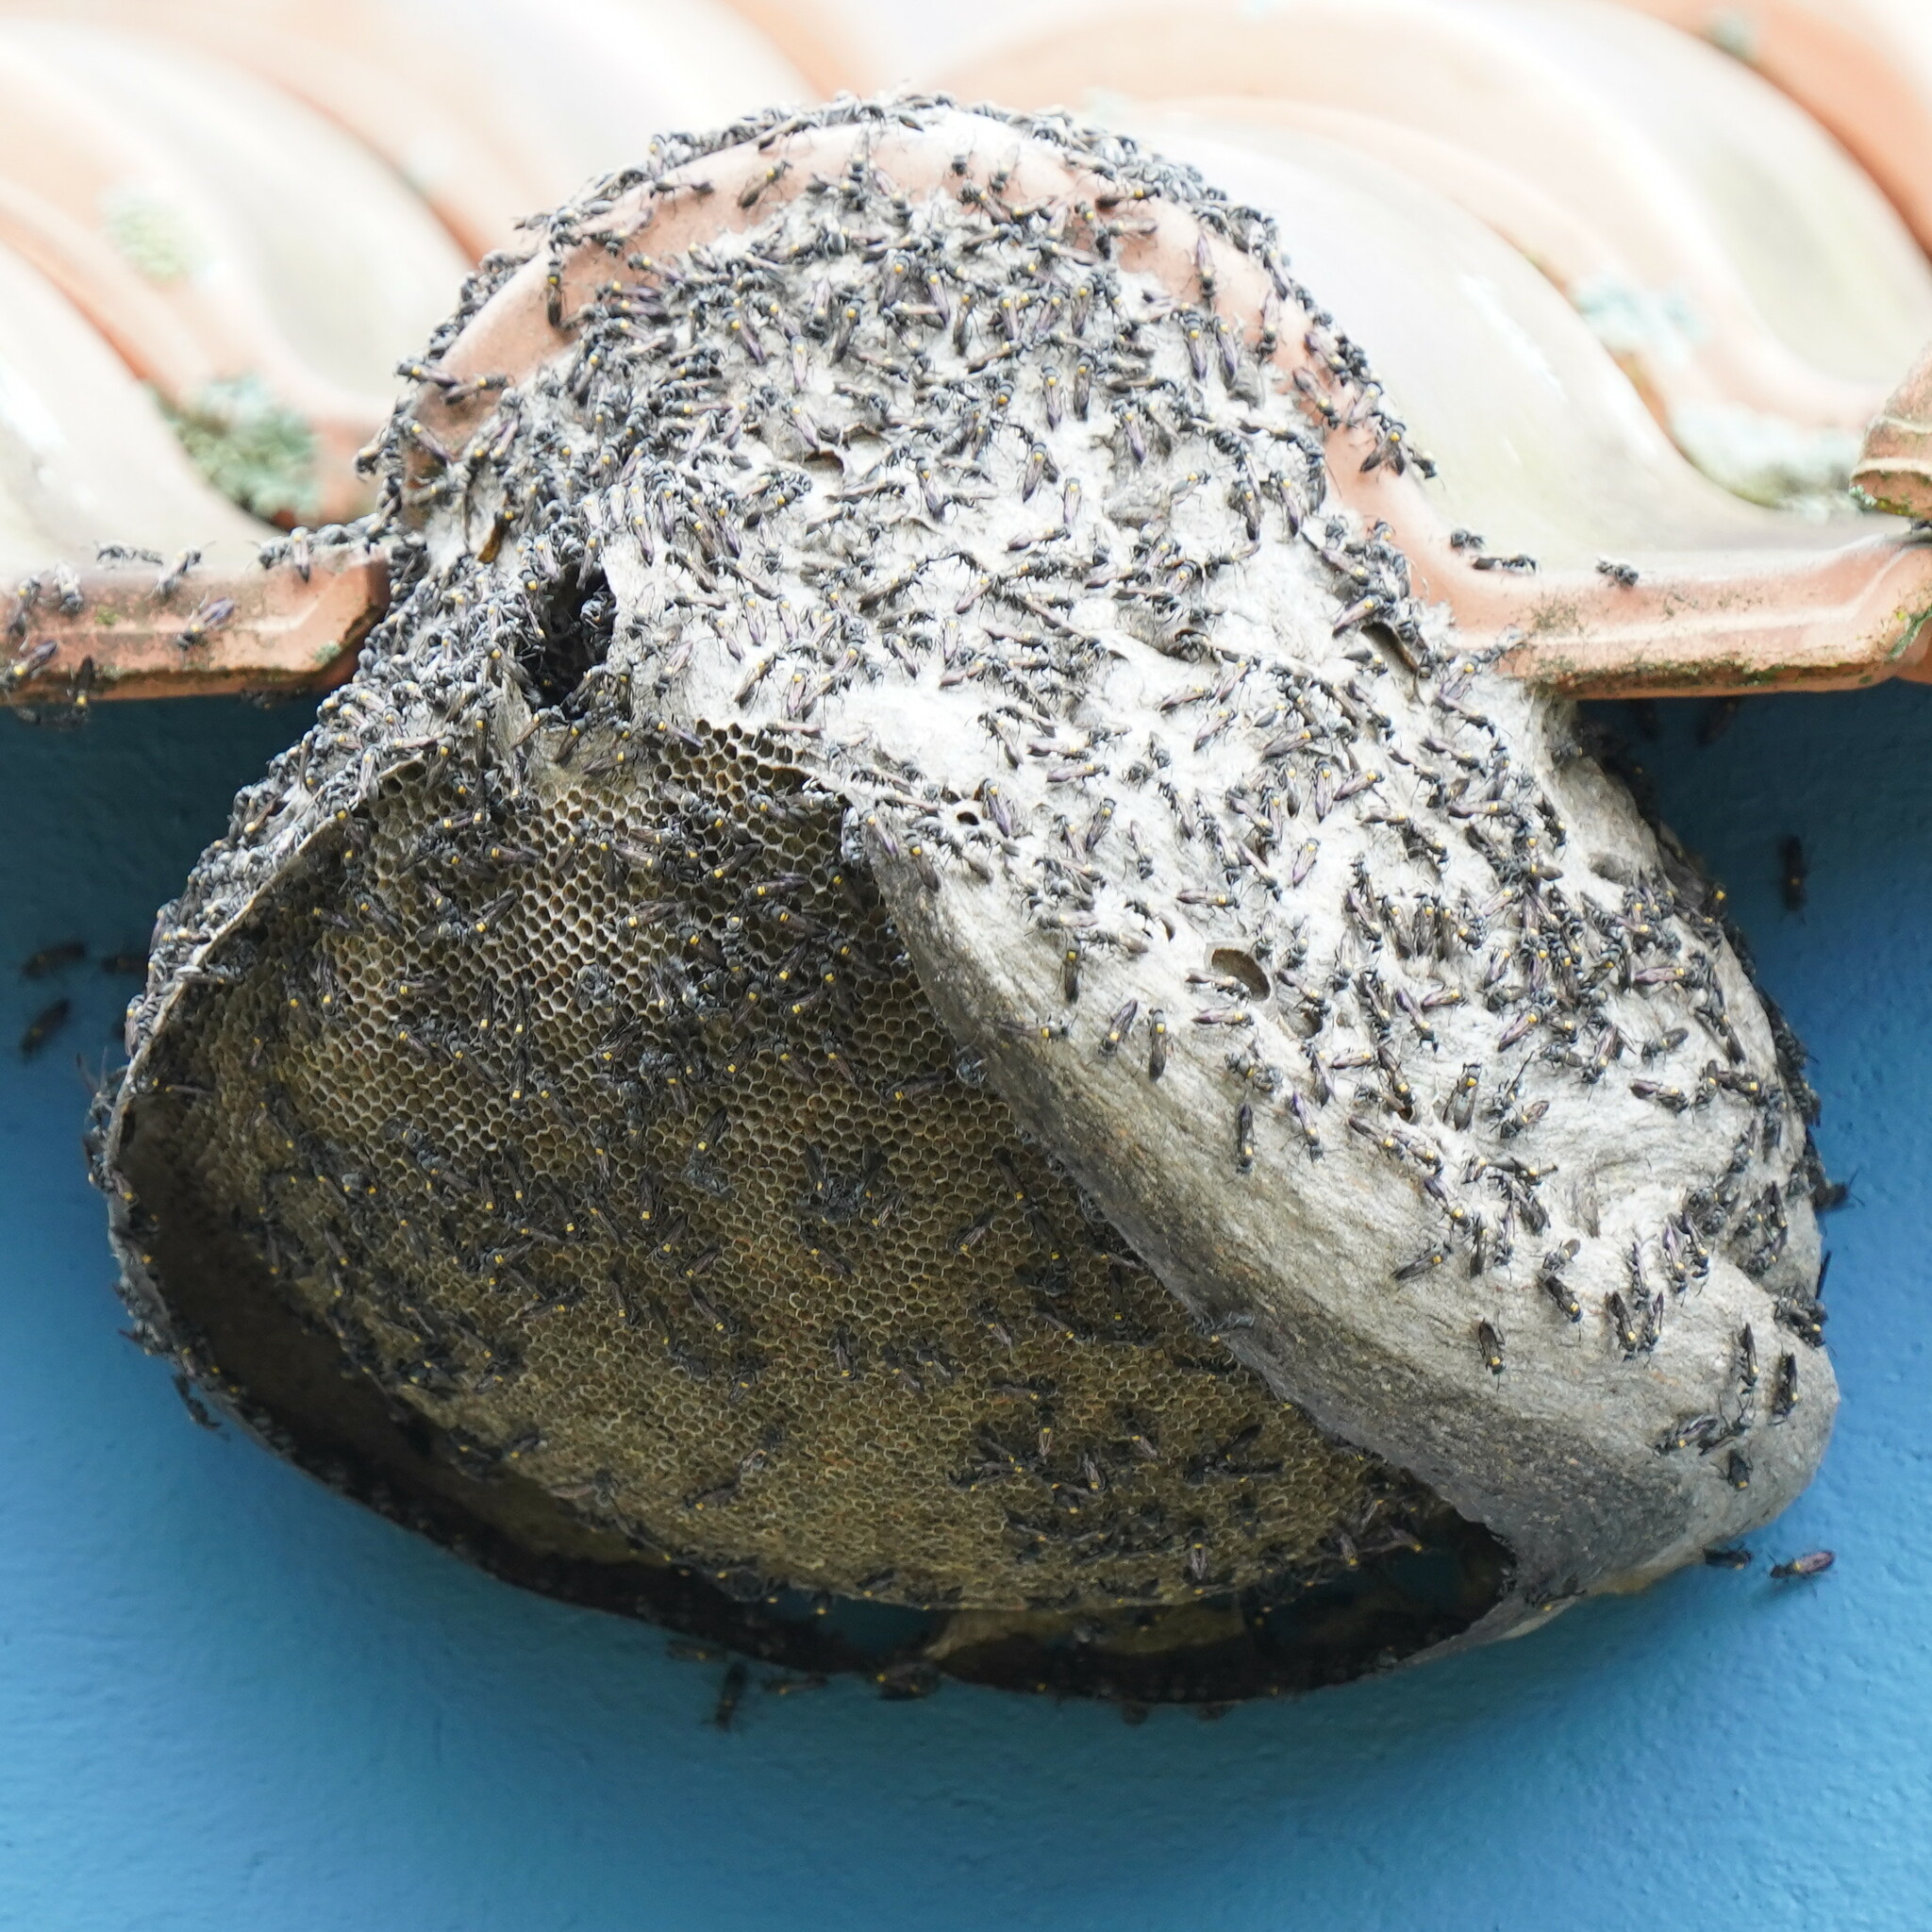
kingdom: Animalia
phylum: Arthropoda
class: Insecta
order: Hymenoptera
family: Eumenidae
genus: Polybia
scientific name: Polybia paulista
